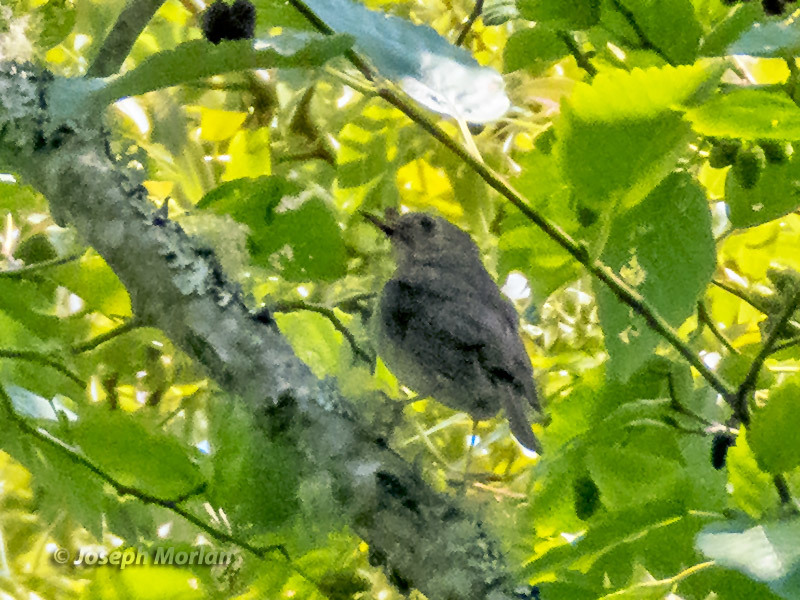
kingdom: Animalia
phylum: Chordata
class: Aves
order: Passeriformes
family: Turdidae
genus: Catharus
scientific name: Catharus ustulatus
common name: Swainson's thrush
